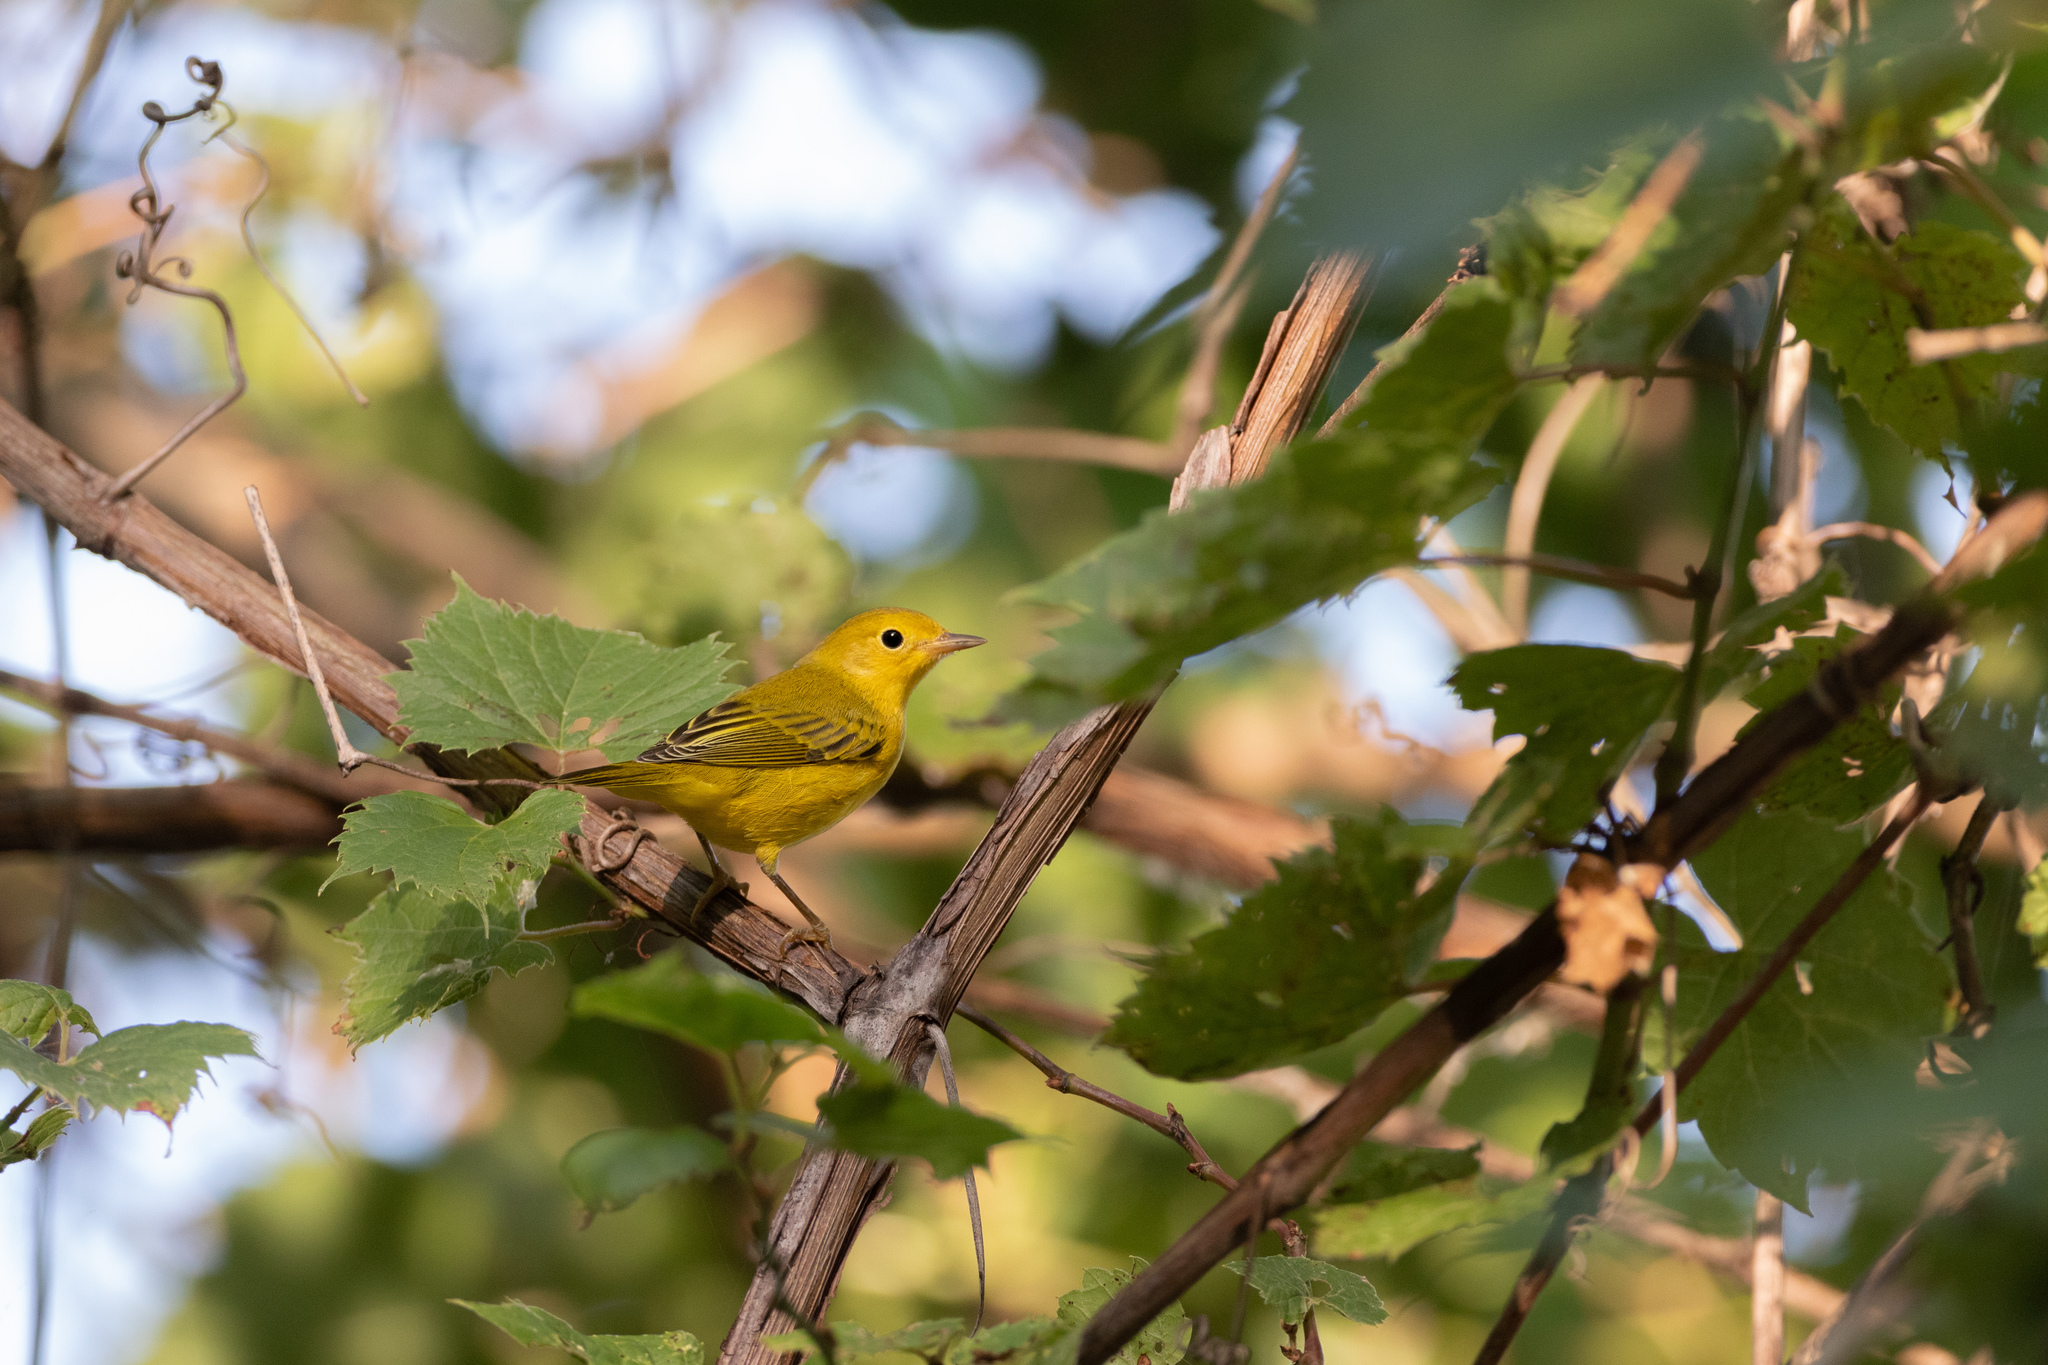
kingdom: Animalia
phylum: Chordata
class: Aves
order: Passeriformes
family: Parulidae
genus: Setophaga
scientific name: Setophaga petechia
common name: Yellow warbler
